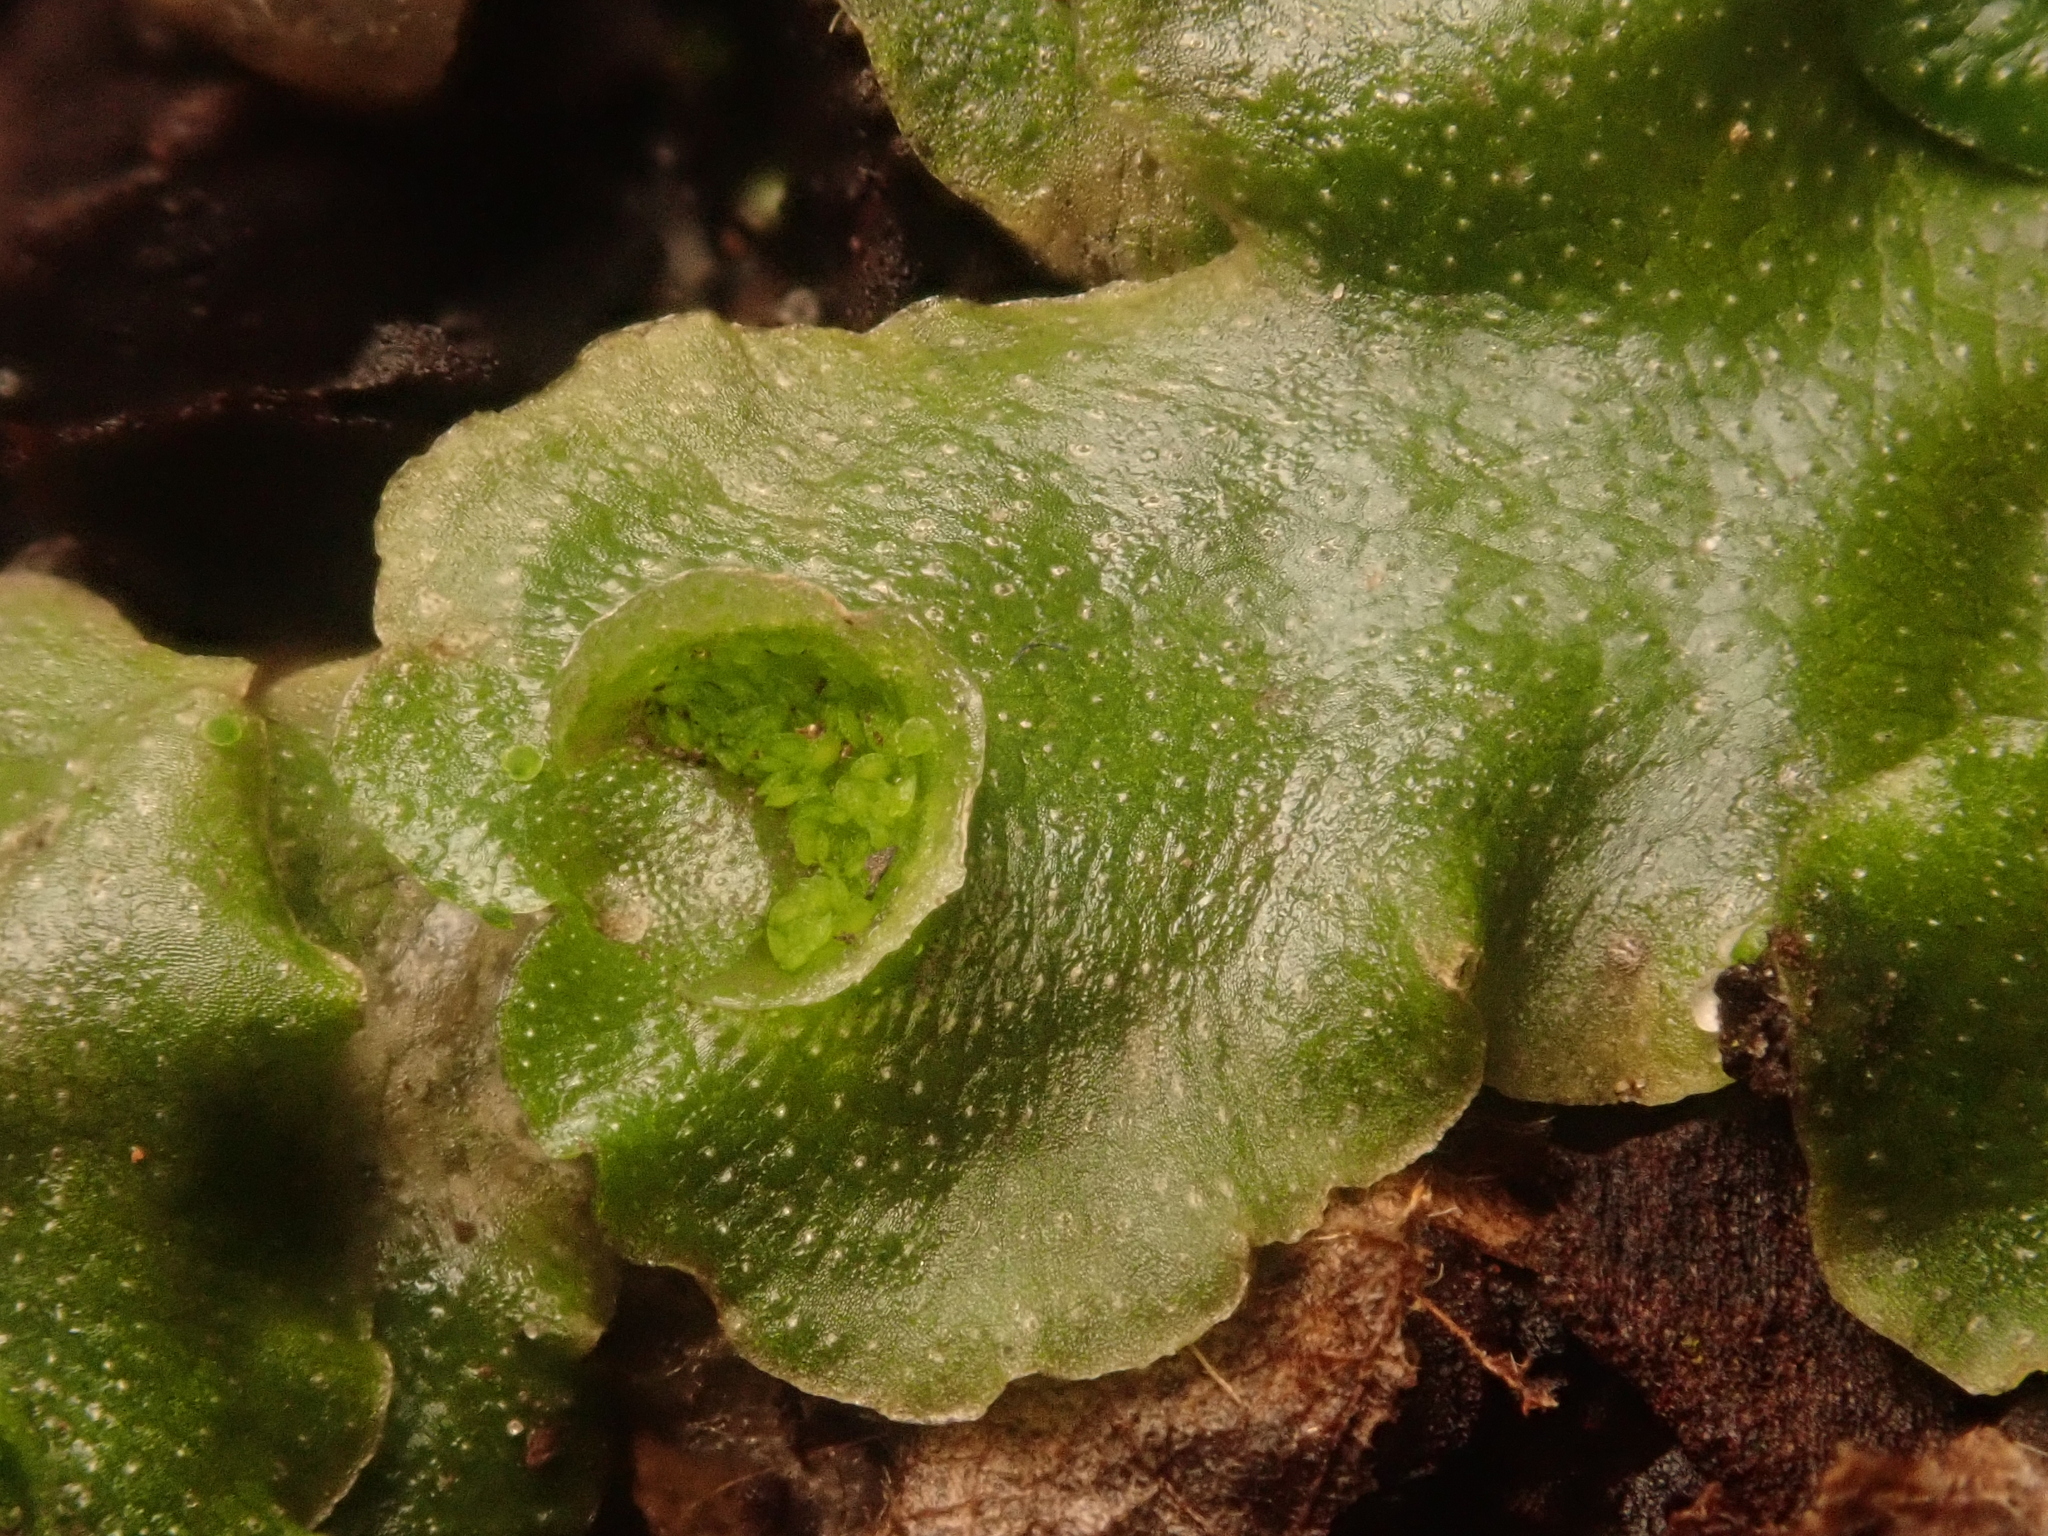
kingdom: Plantae
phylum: Marchantiophyta
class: Marchantiopsida
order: Lunulariales
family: Lunulariaceae
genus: Lunularia
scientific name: Lunularia cruciata
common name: Crescent-cup liverwort
